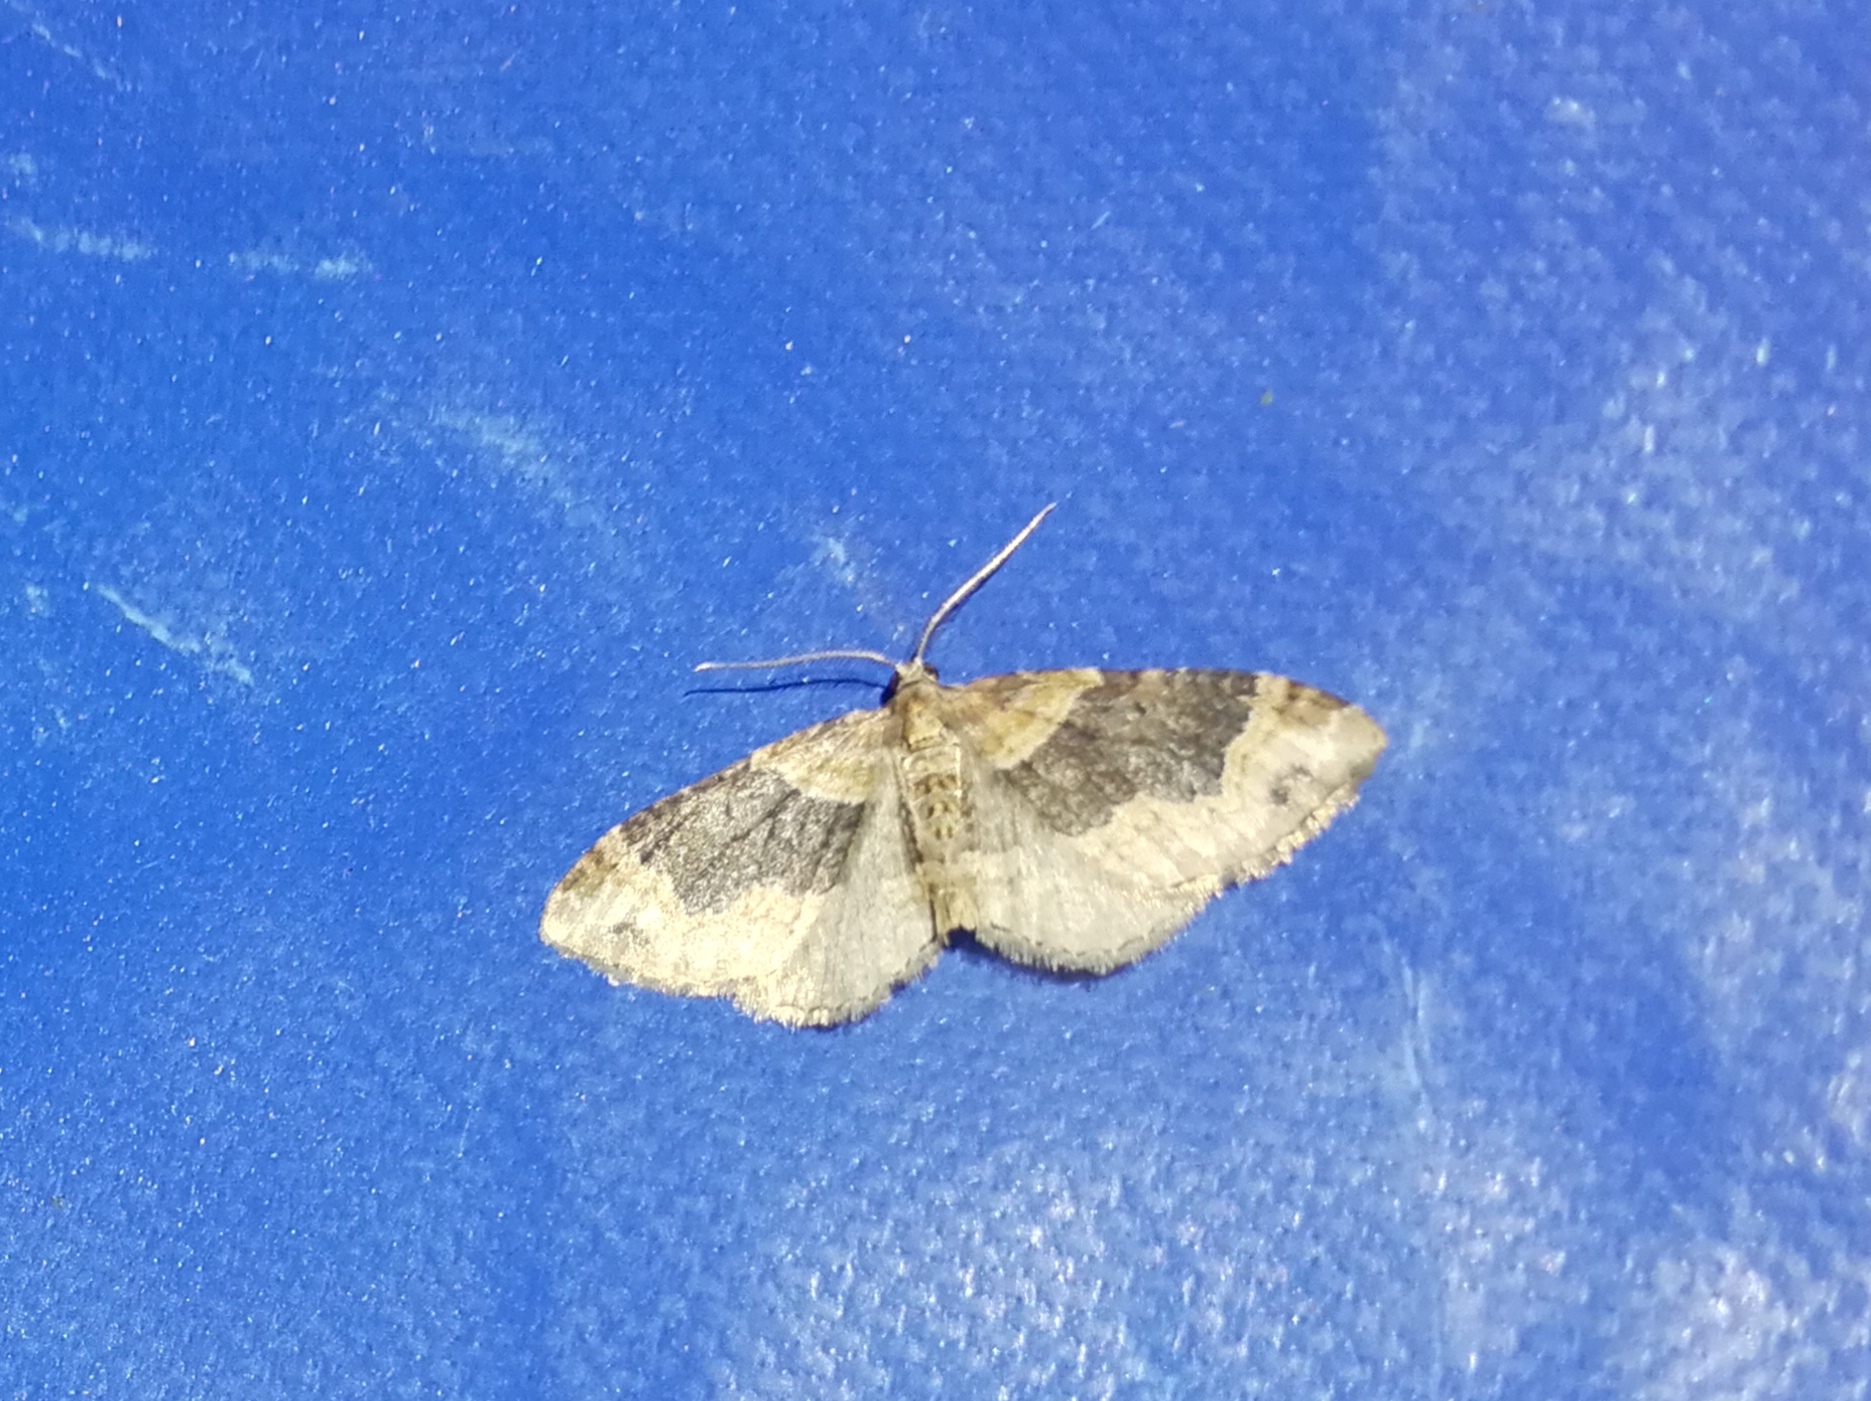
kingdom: Animalia
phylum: Arthropoda
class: Insecta
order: Lepidoptera
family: Geometridae
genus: Xanthorhoe
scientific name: Xanthorhoe ferrugata
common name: Dark-barred twin-spot carpet
